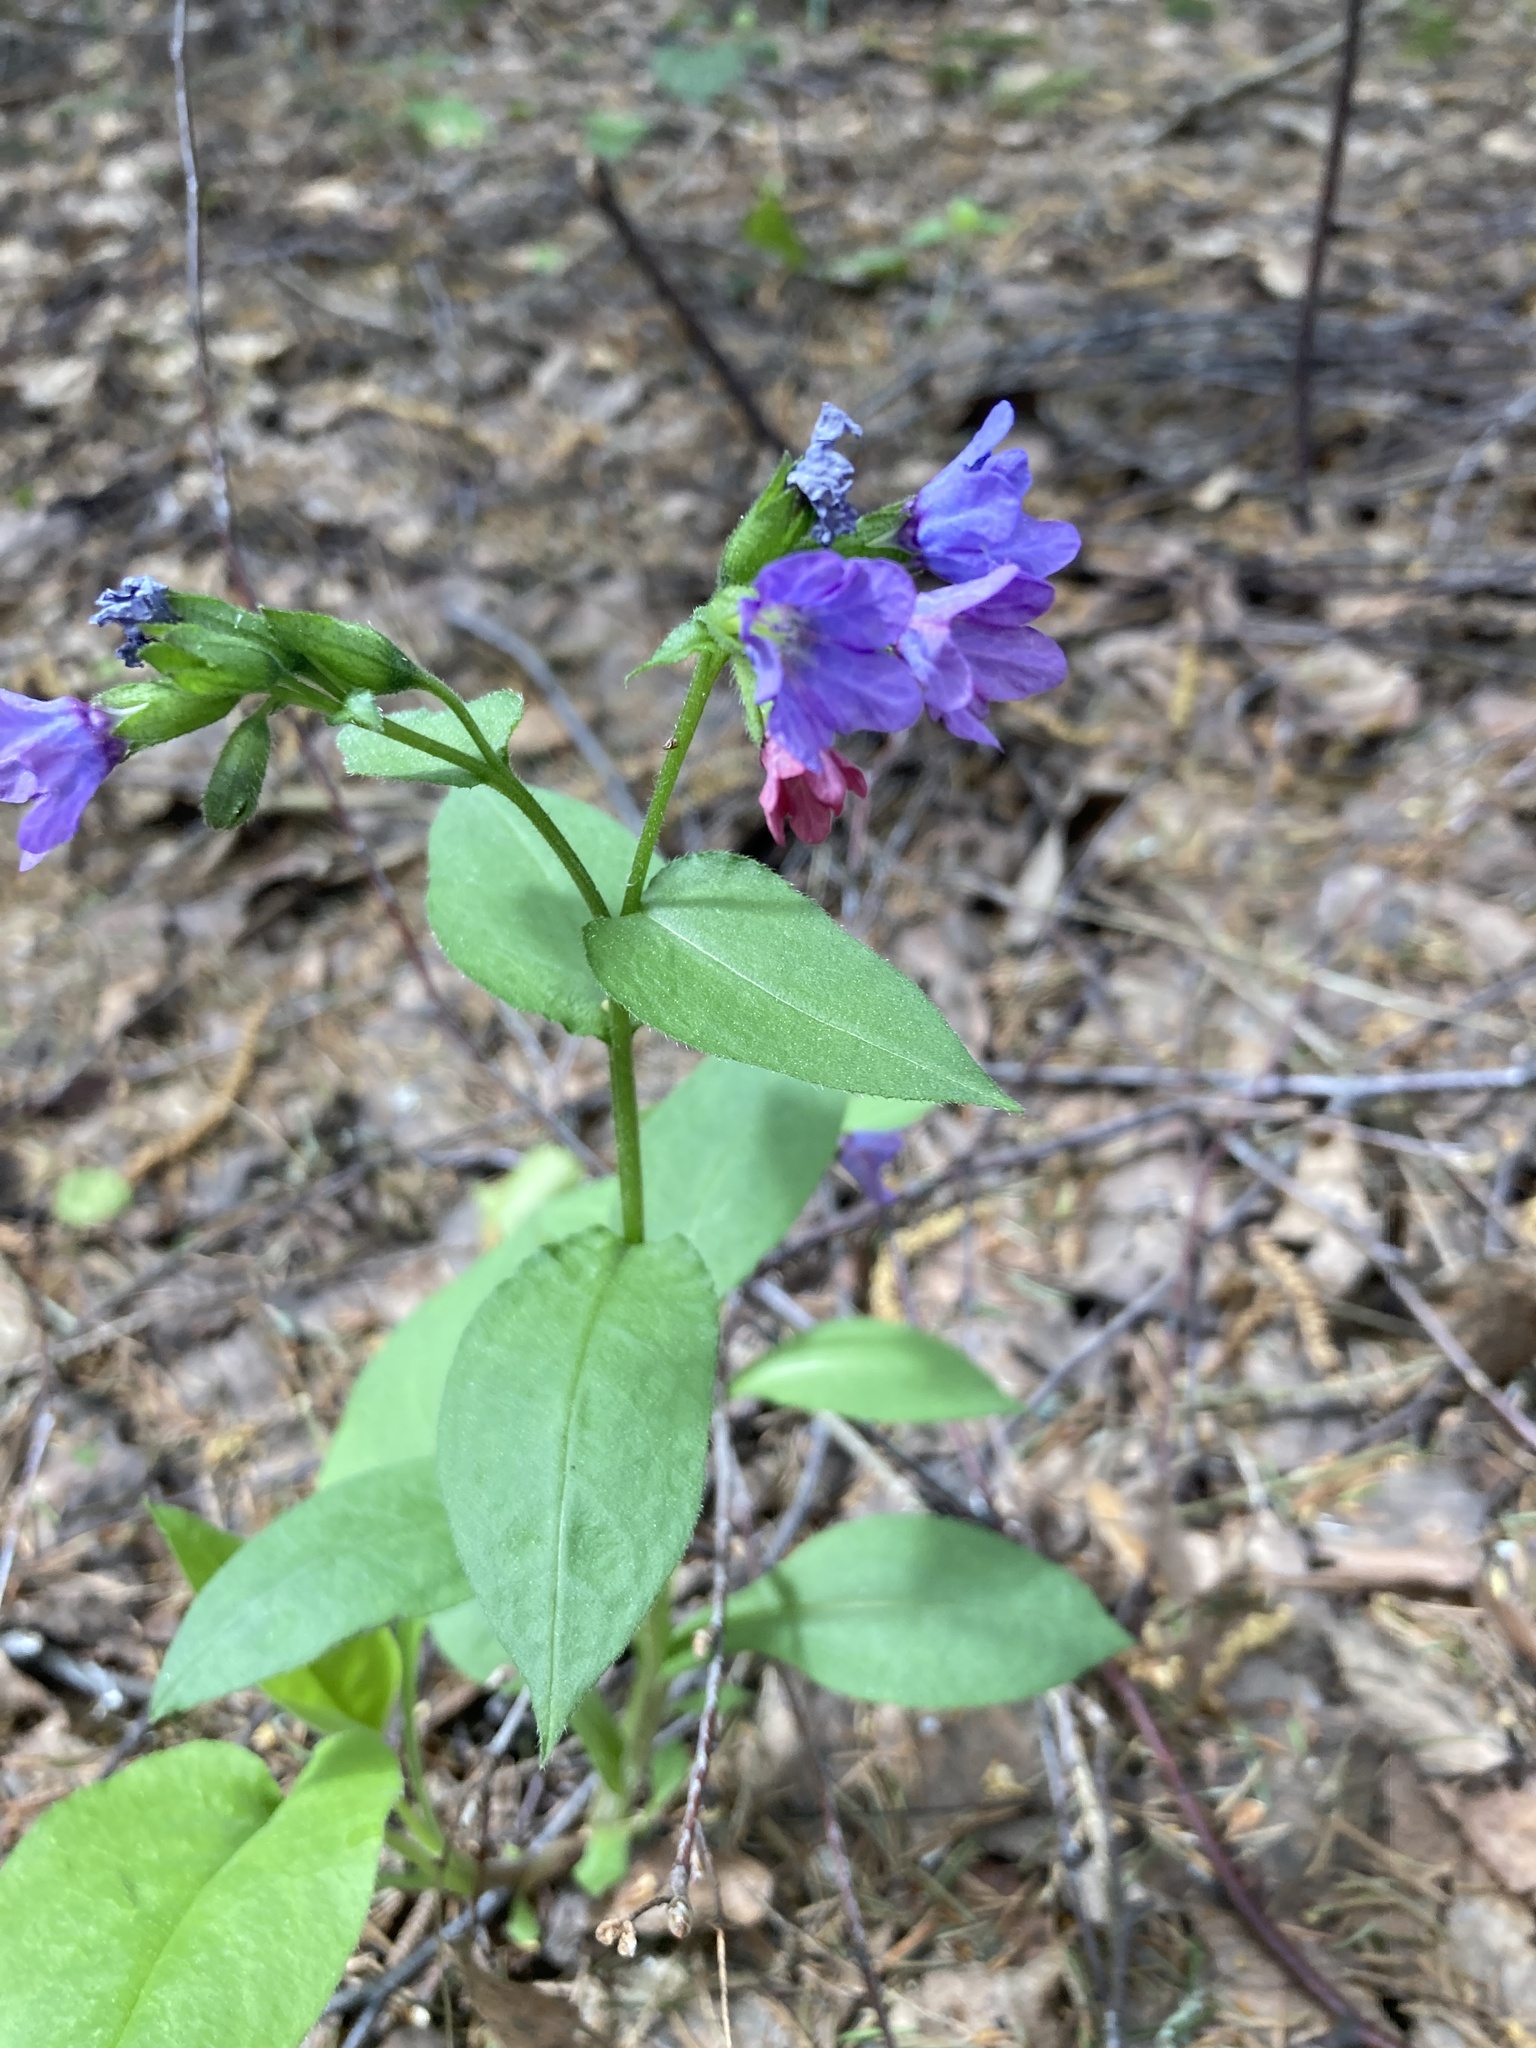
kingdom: Plantae
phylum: Tracheophyta
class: Magnoliopsida
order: Boraginales
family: Boraginaceae
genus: Pulmonaria
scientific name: Pulmonaria obscura
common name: Suffolk lungwort
